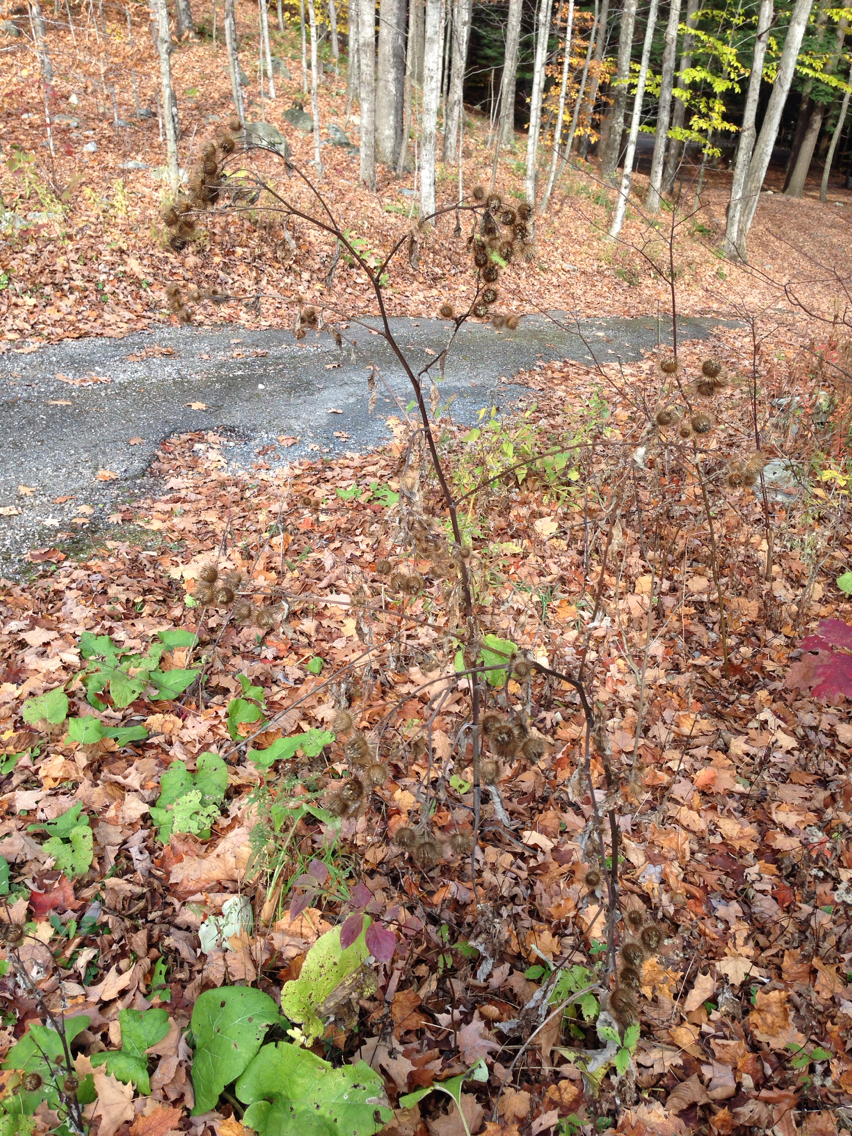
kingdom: Plantae
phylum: Tracheophyta
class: Magnoliopsida
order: Asterales
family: Asteraceae
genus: Arctium
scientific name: Arctium lappa
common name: Greater burdock
